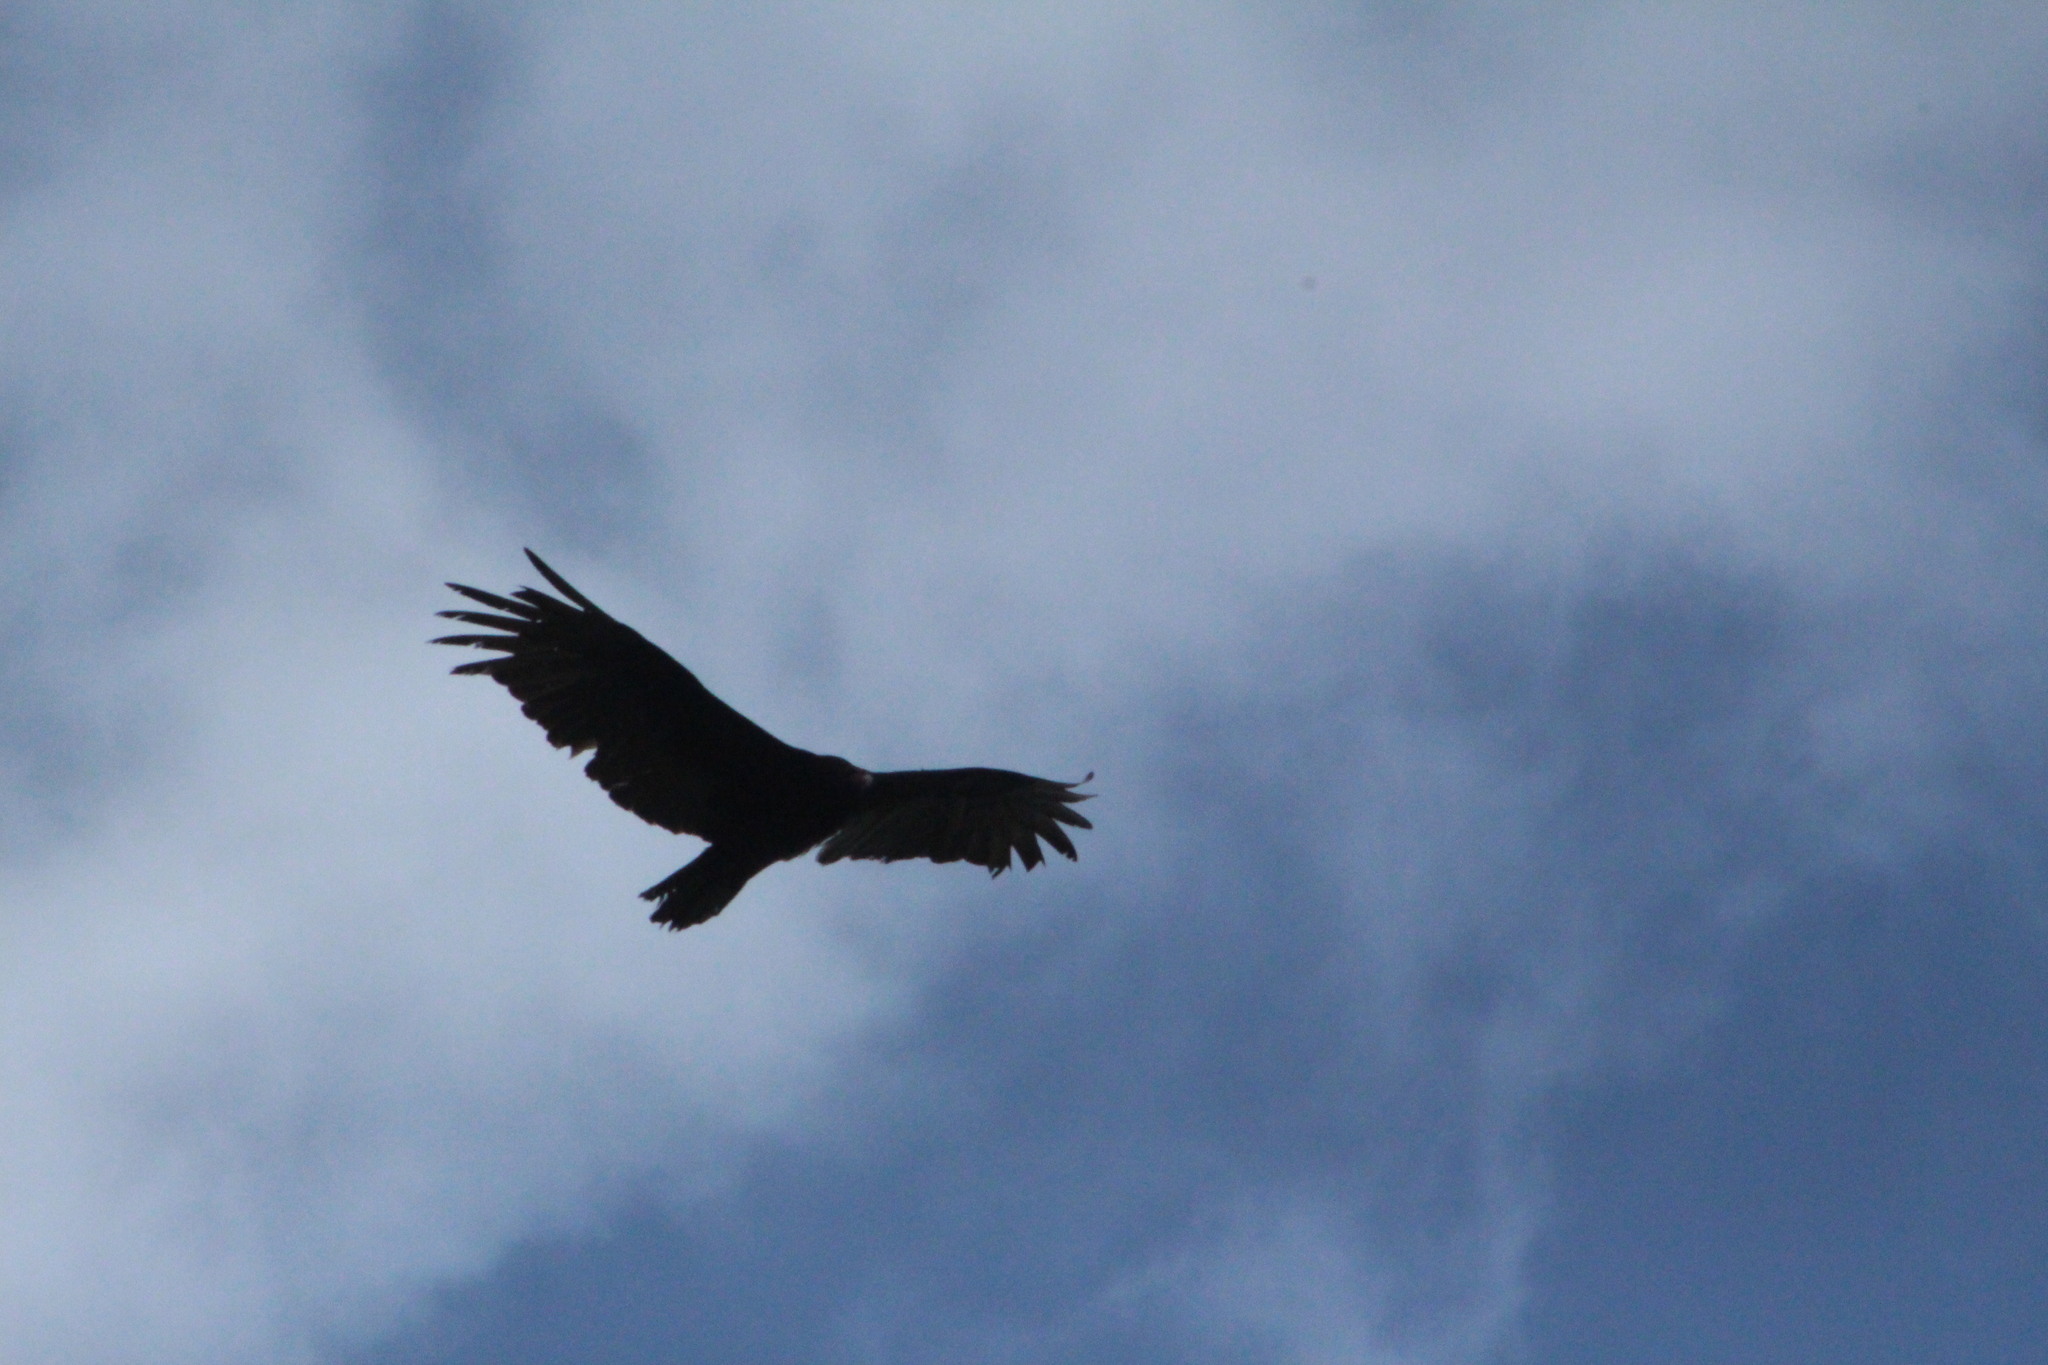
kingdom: Animalia
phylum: Chordata
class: Aves
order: Accipitriformes
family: Cathartidae
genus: Cathartes
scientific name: Cathartes aura
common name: Turkey vulture
